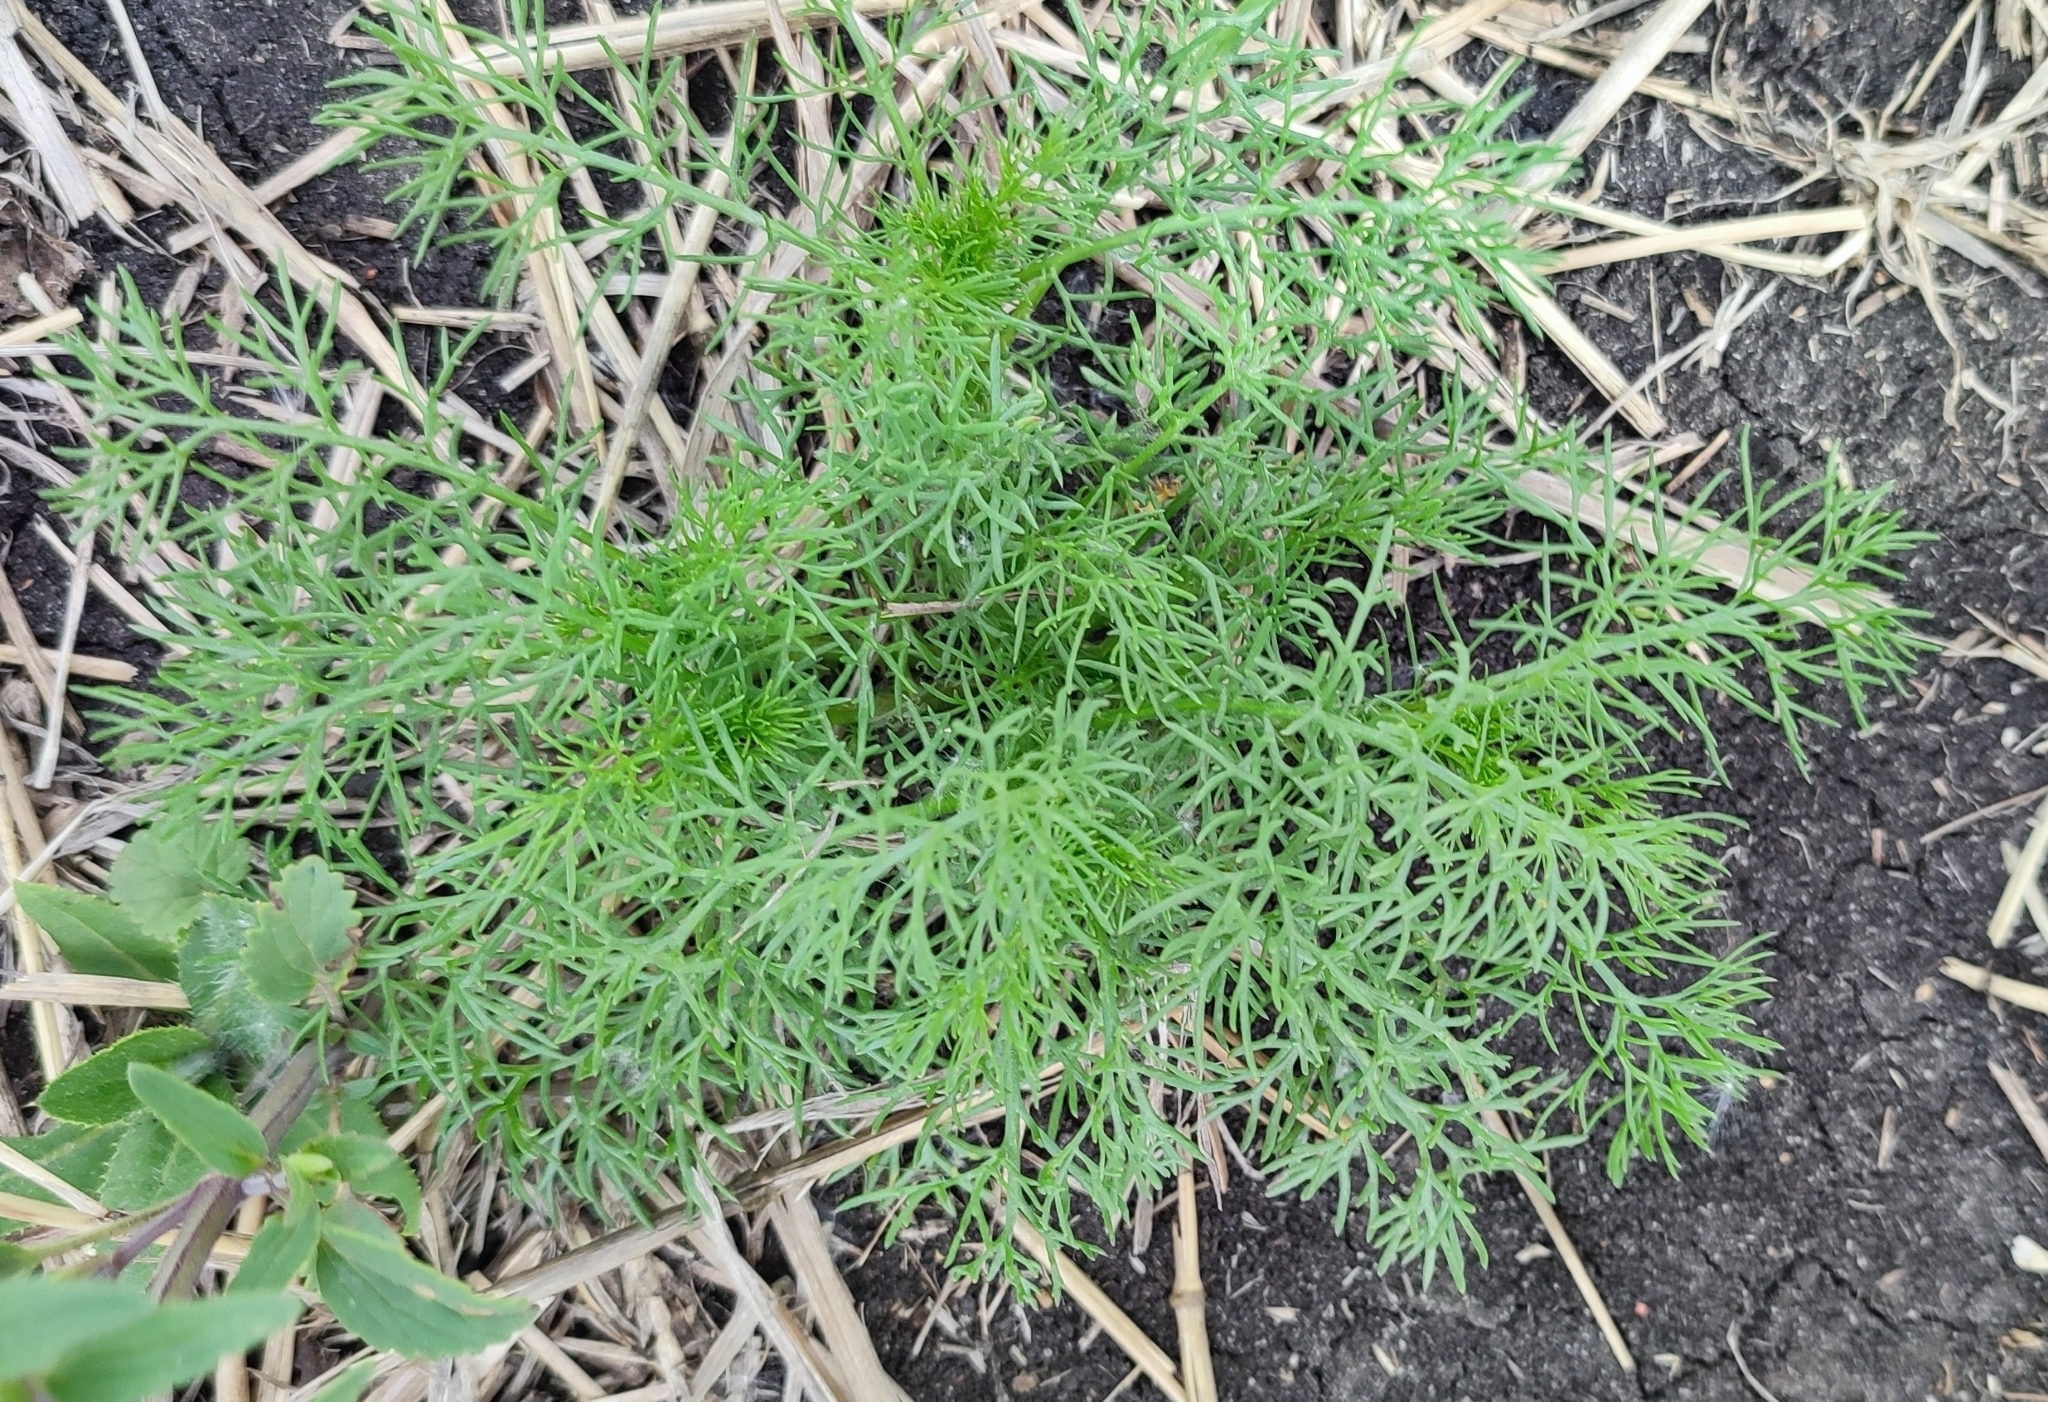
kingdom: Plantae
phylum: Tracheophyta
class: Magnoliopsida
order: Asterales
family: Asteraceae
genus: Tripleurospermum
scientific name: Tripleurospermum inodorum
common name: Scentless mayweed
